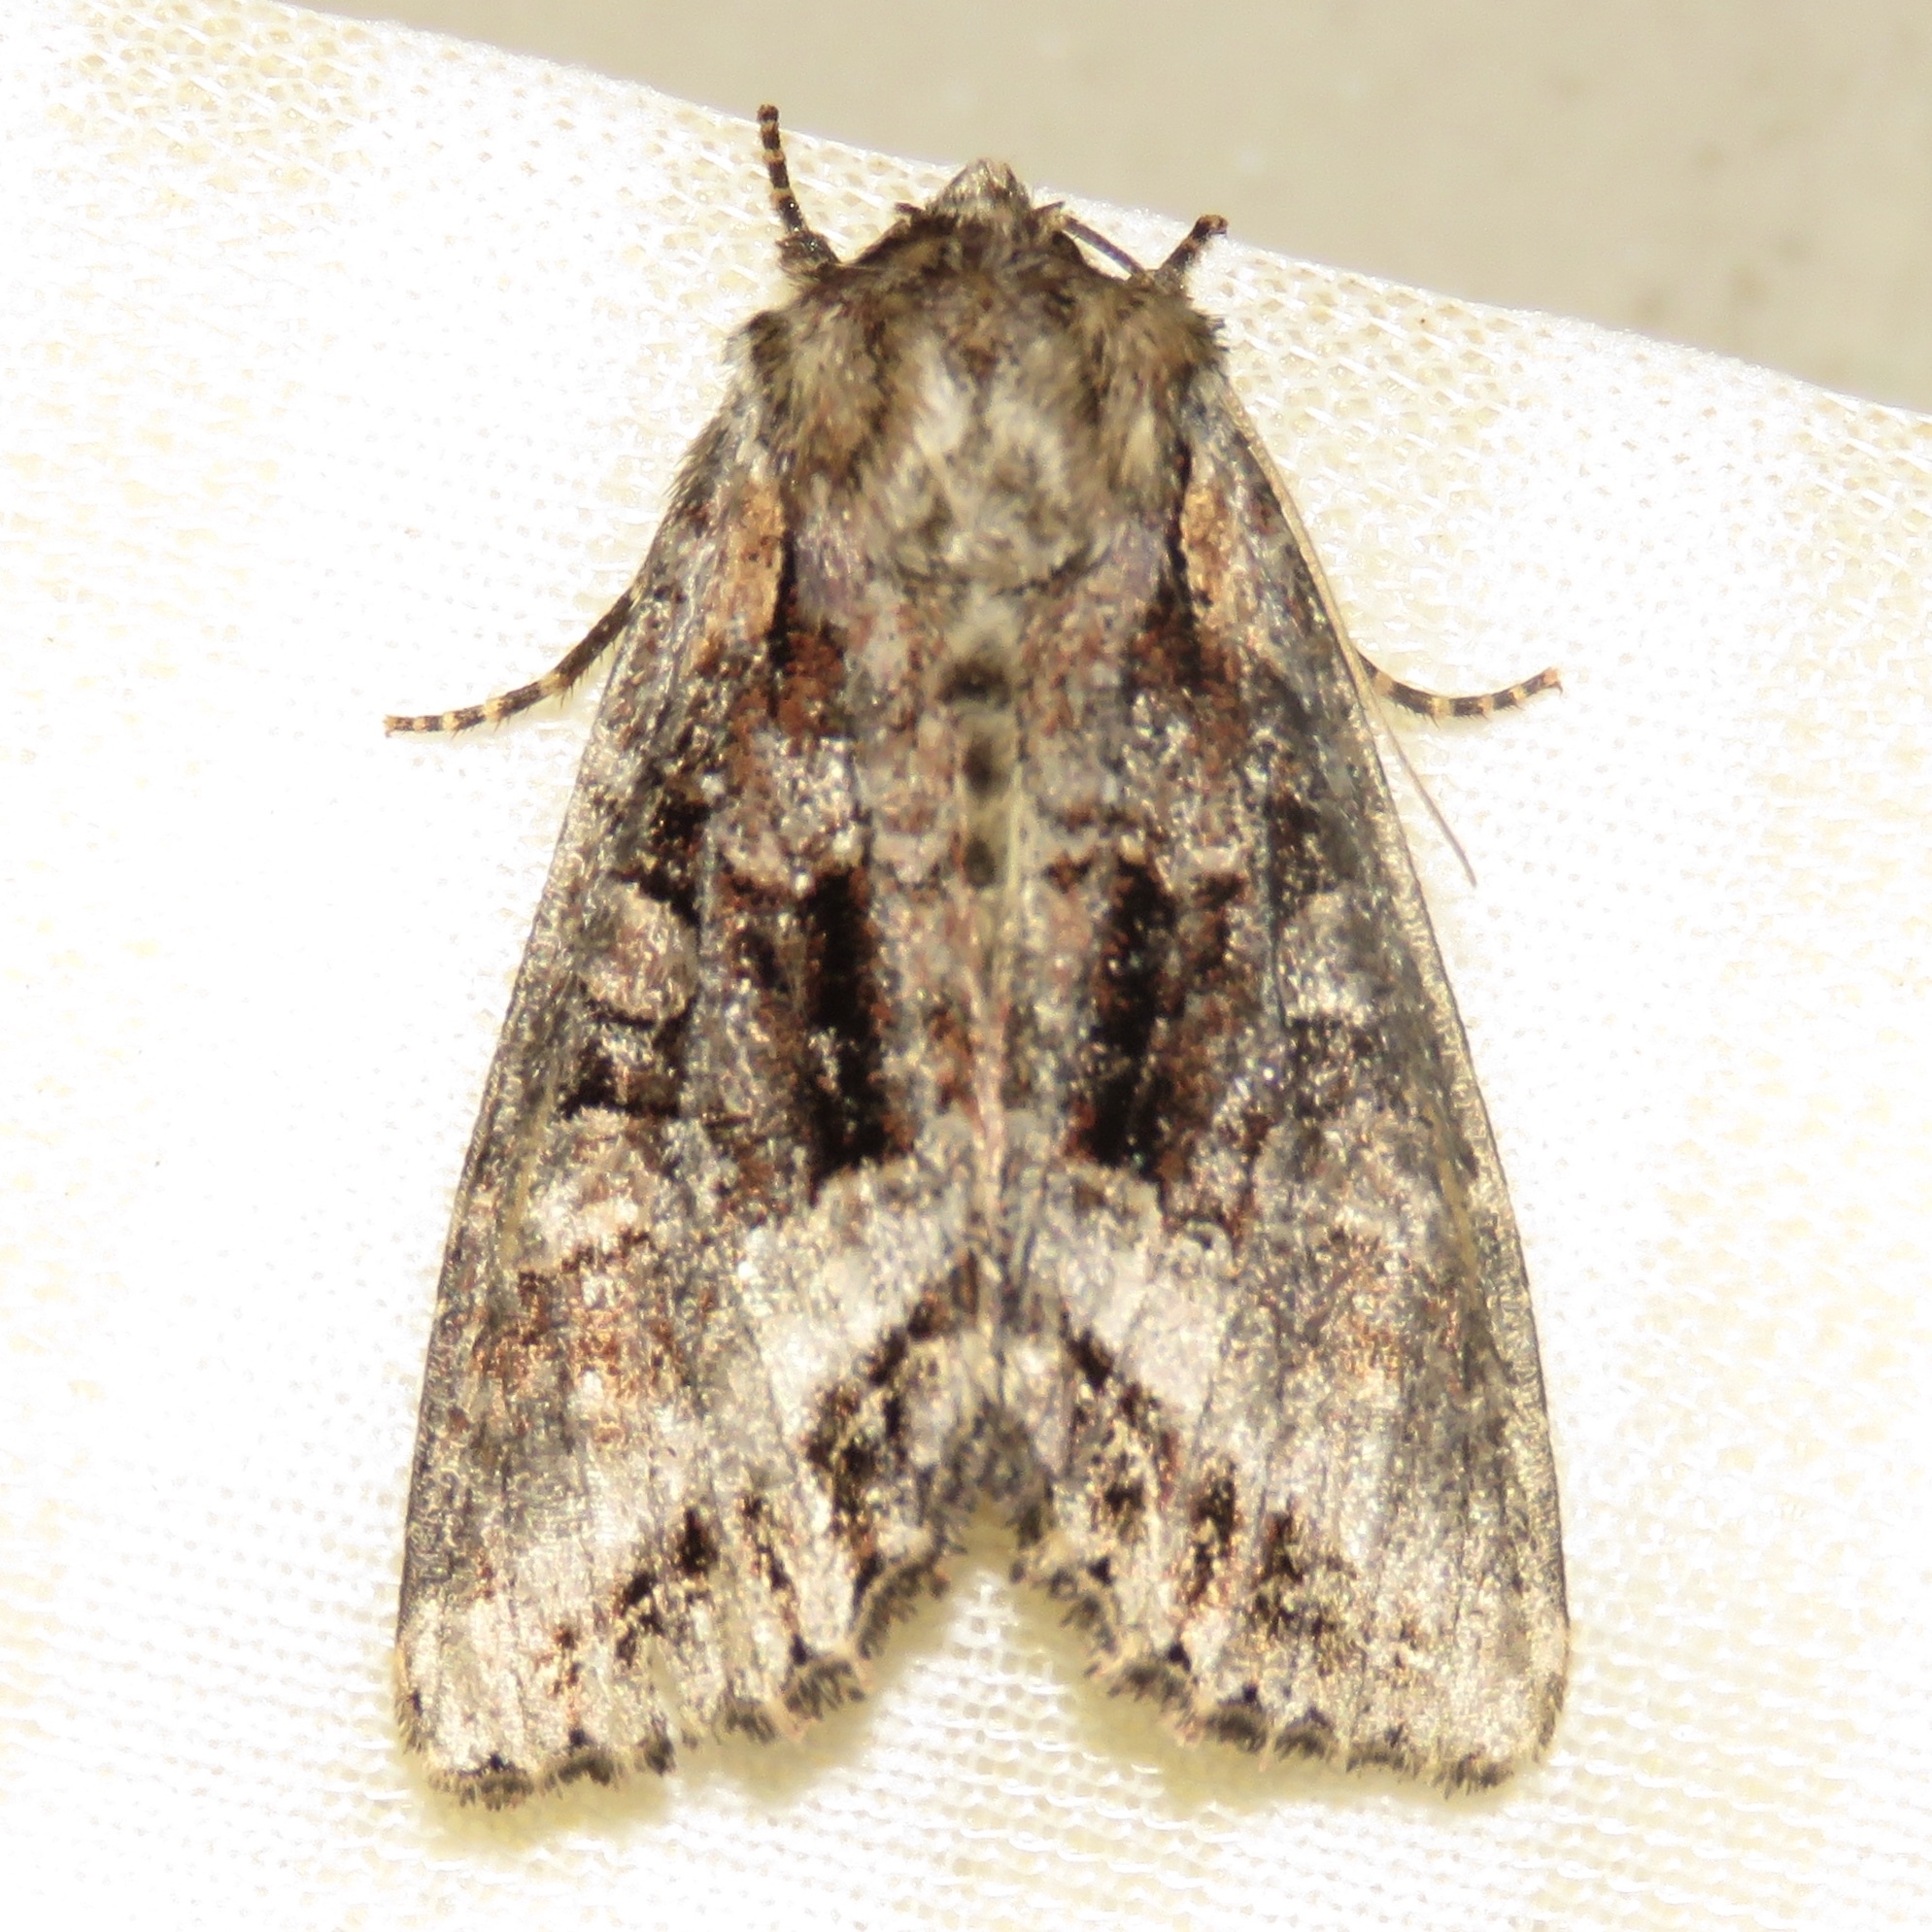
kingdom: Animalia
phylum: Arthropoda
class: Insecta
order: Lepidoptera
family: Noctuidae
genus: Lacanobia
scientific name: Lacanobia grandis
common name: Grand arches moth
